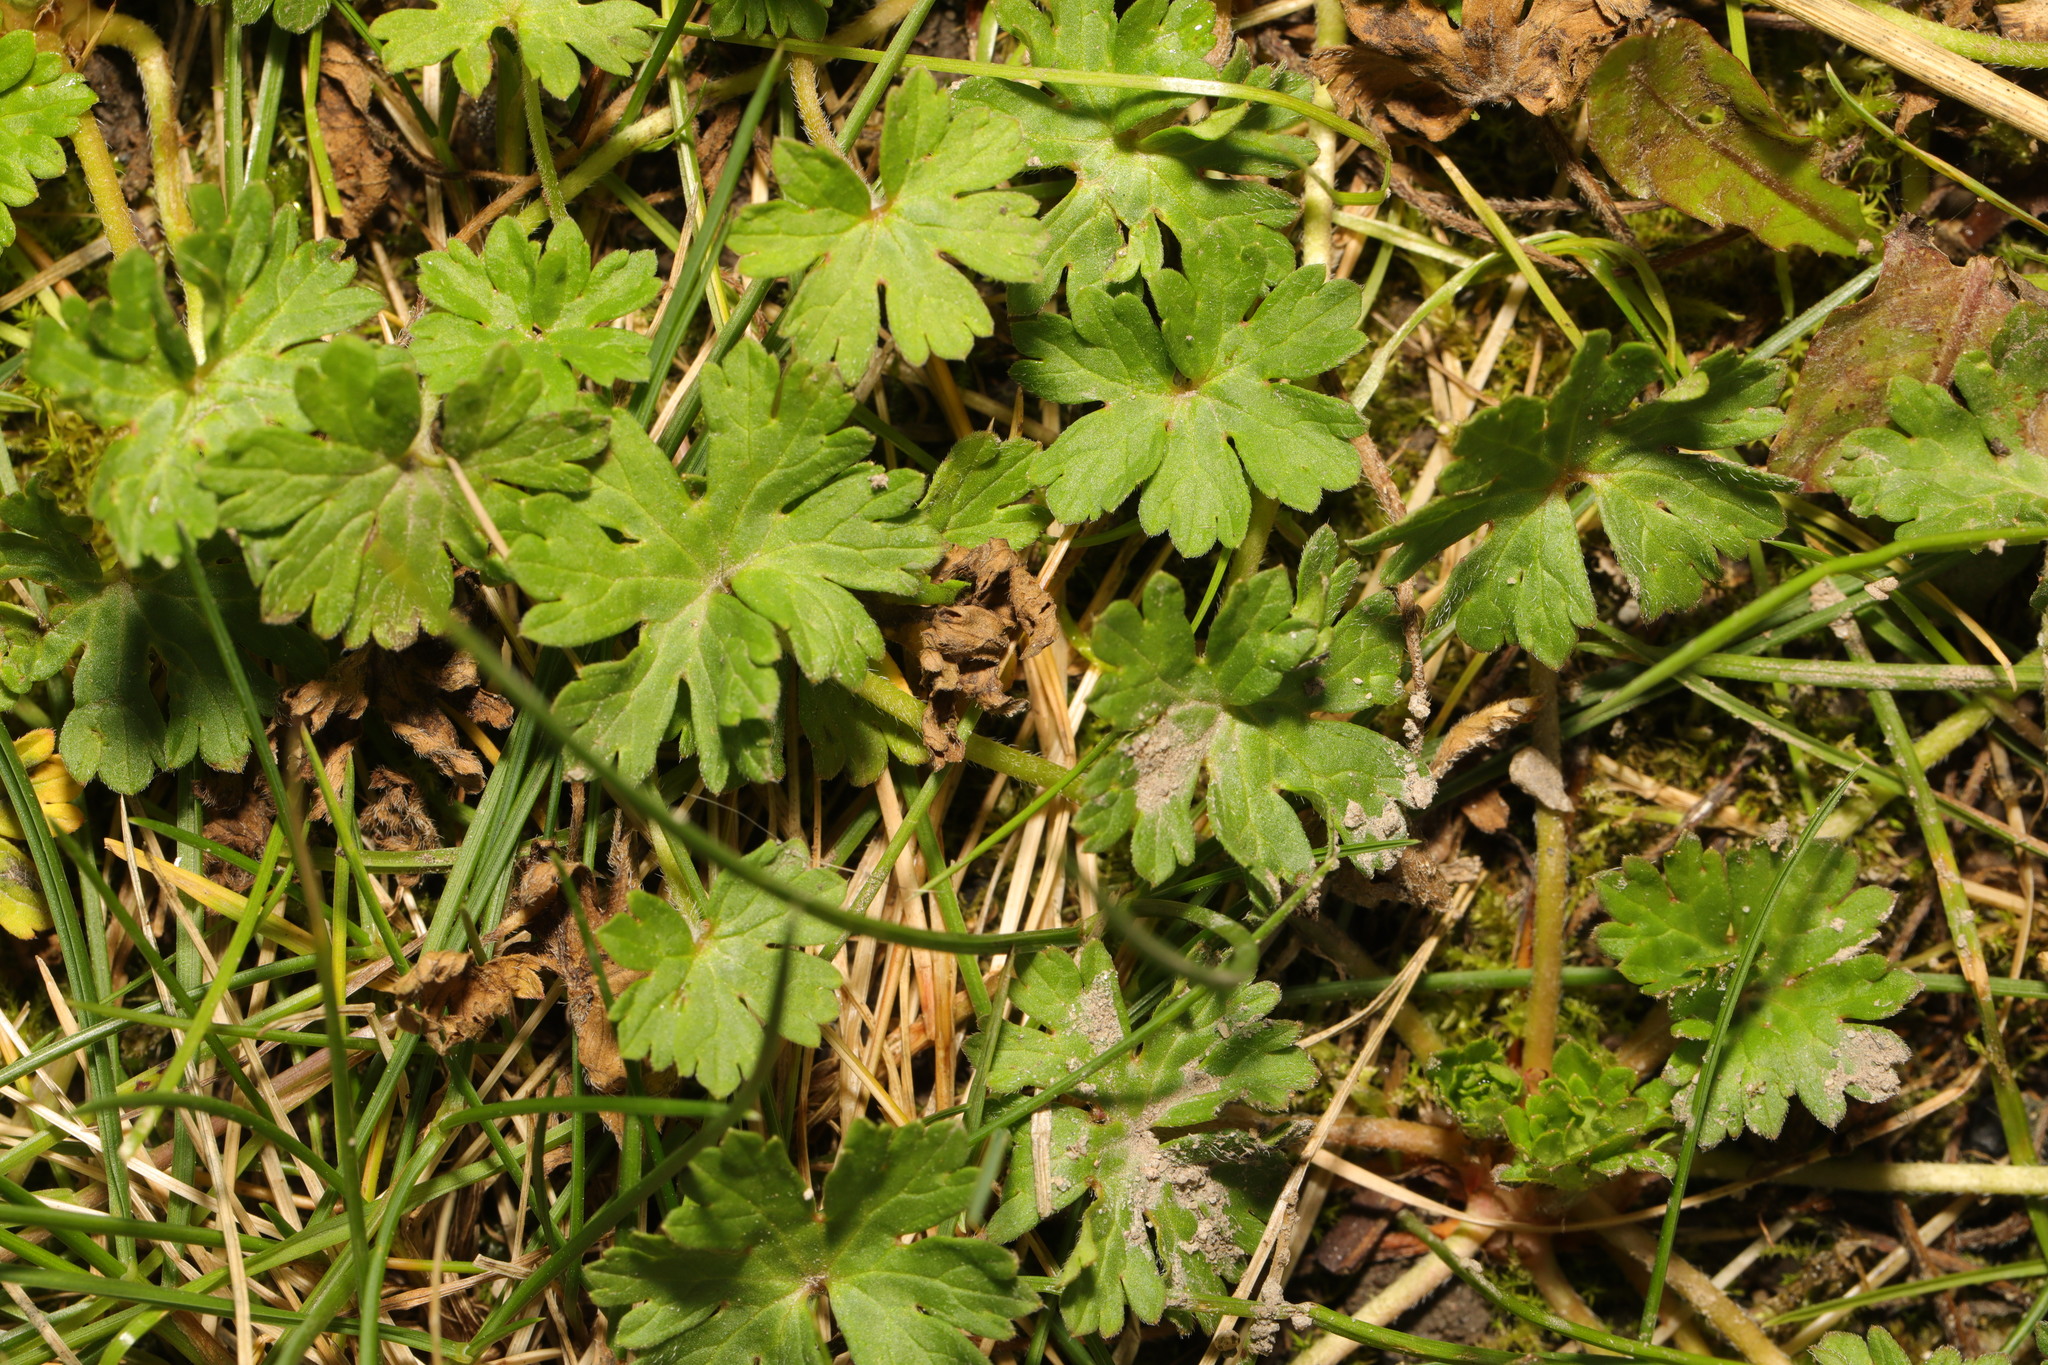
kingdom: Plantae
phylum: Tracheophyta
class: Magnoliopsida
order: Geraniales
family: Geraniaceae
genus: Geranium
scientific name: Geranium molle
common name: Dove's-foot crane's-bill
